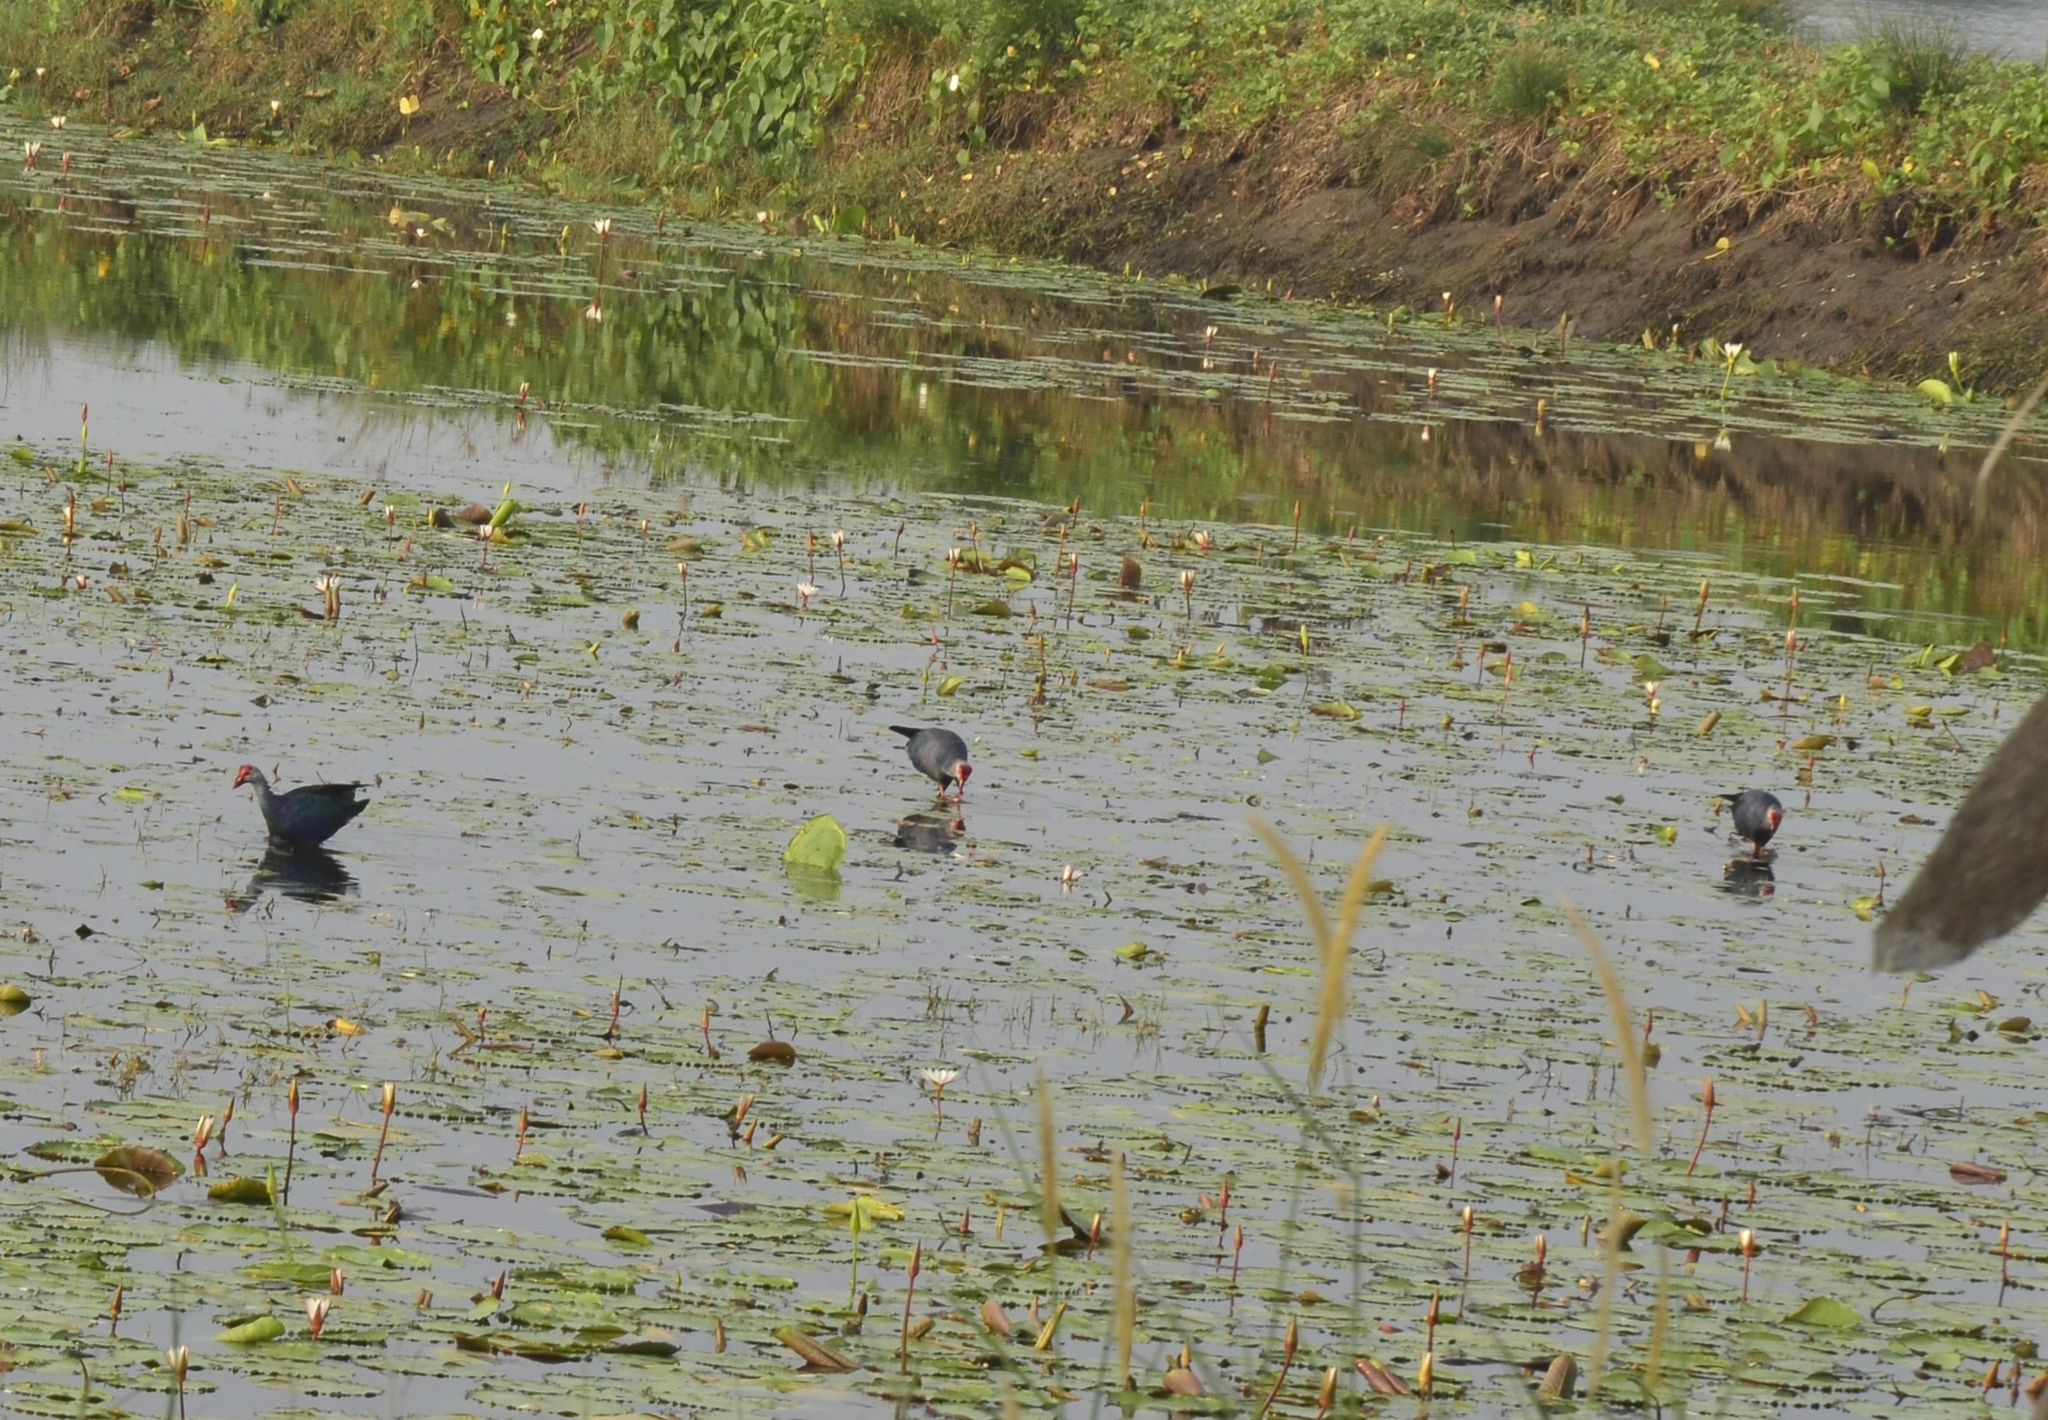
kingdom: Animalia
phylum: Chordata
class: Aves
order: Gruiformes
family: Rallidae
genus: Porphyrio
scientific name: Porphyrio porphyrio
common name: Purple swamphen
